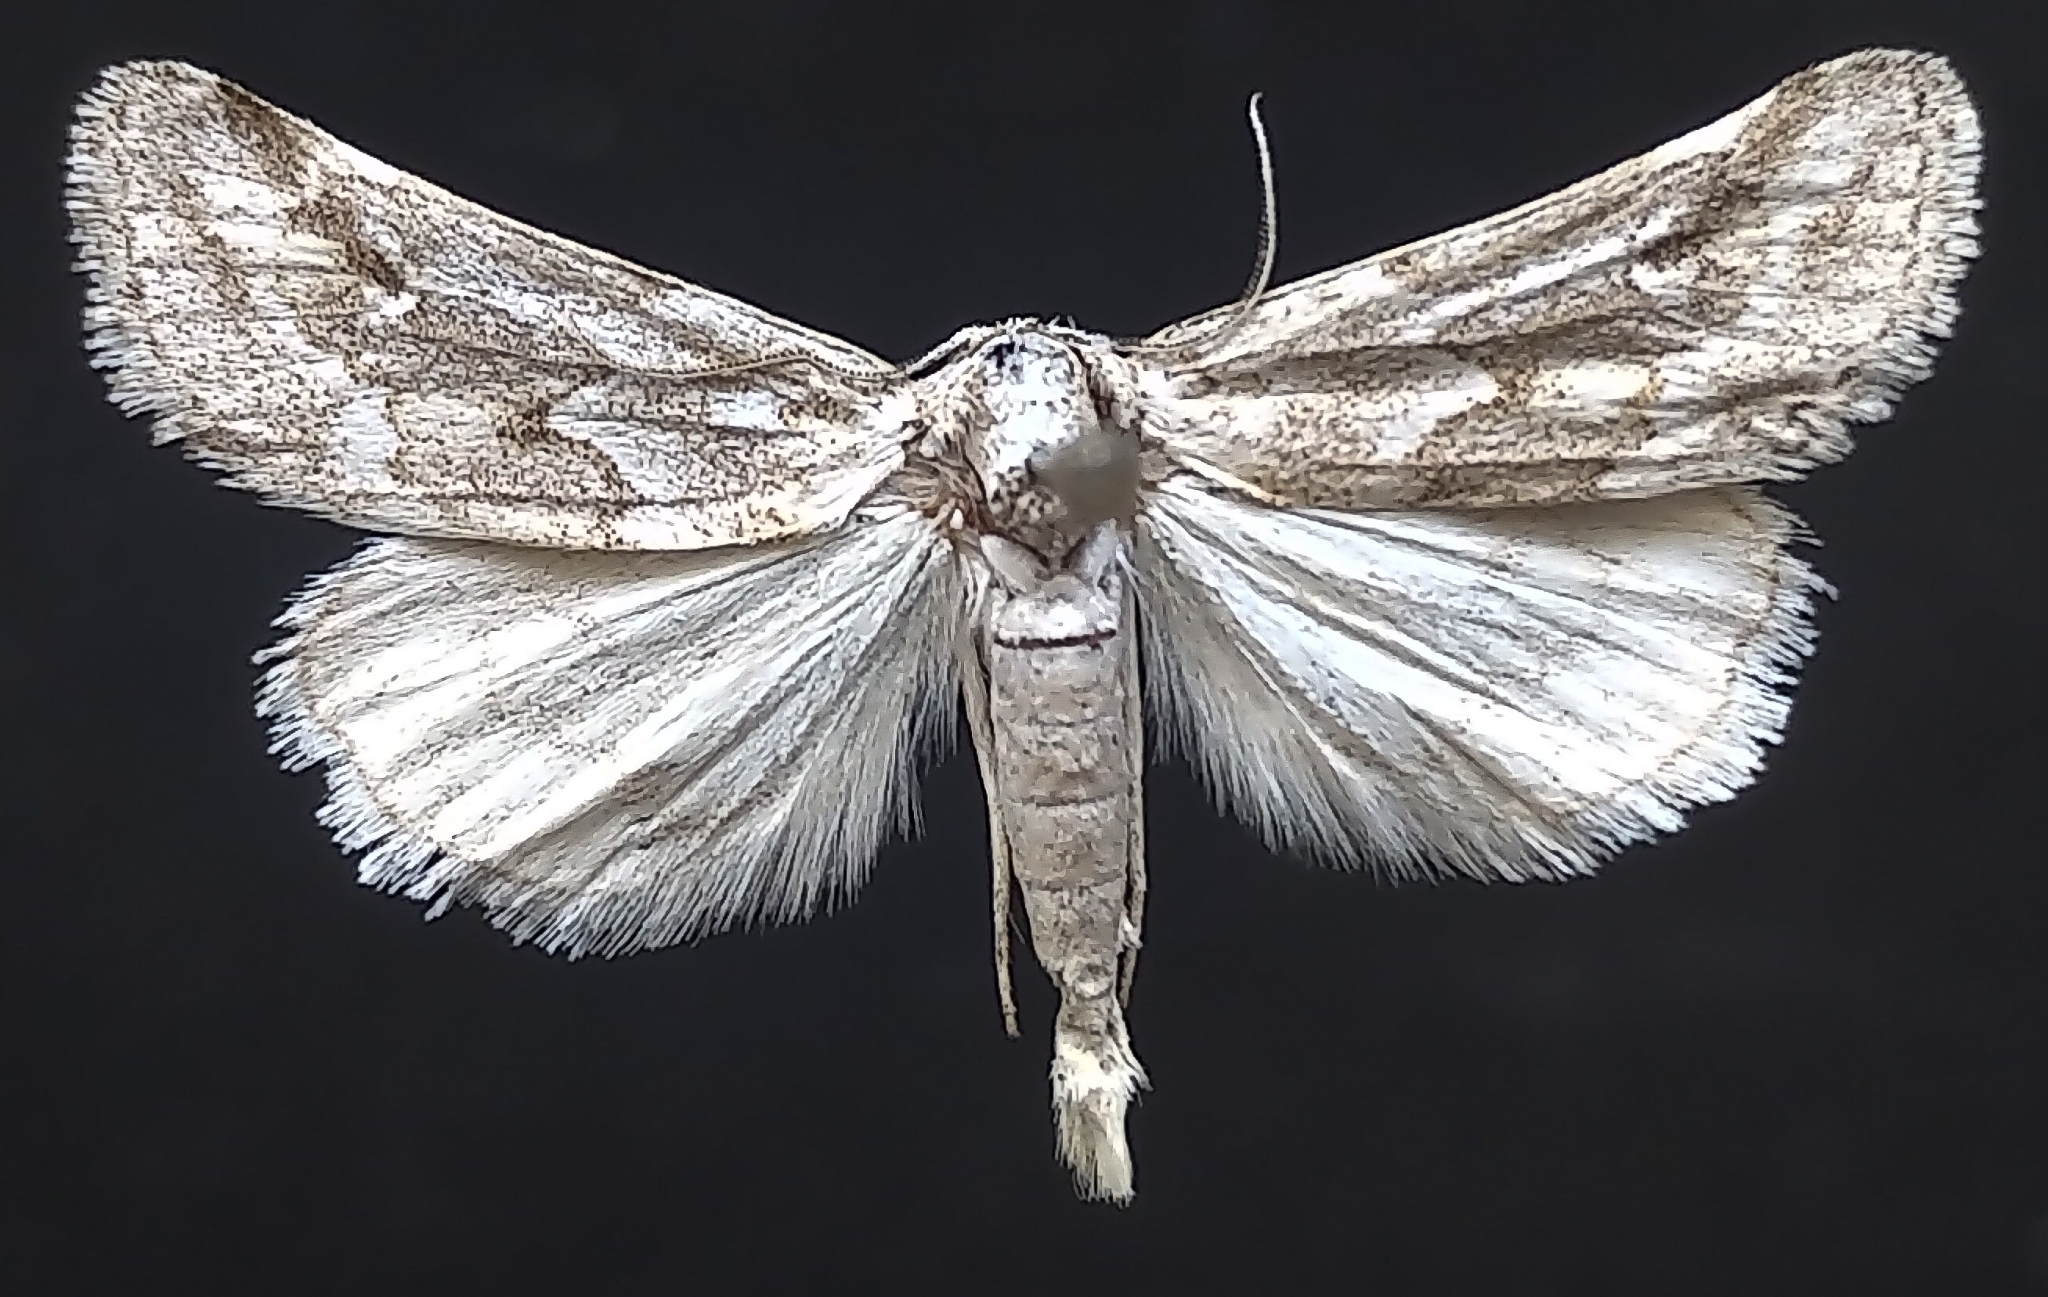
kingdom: Animalia
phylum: Arthropoda
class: Insecta
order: Lepidoptera
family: Noctuidae
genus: Acopa
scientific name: Acopa perpallida
